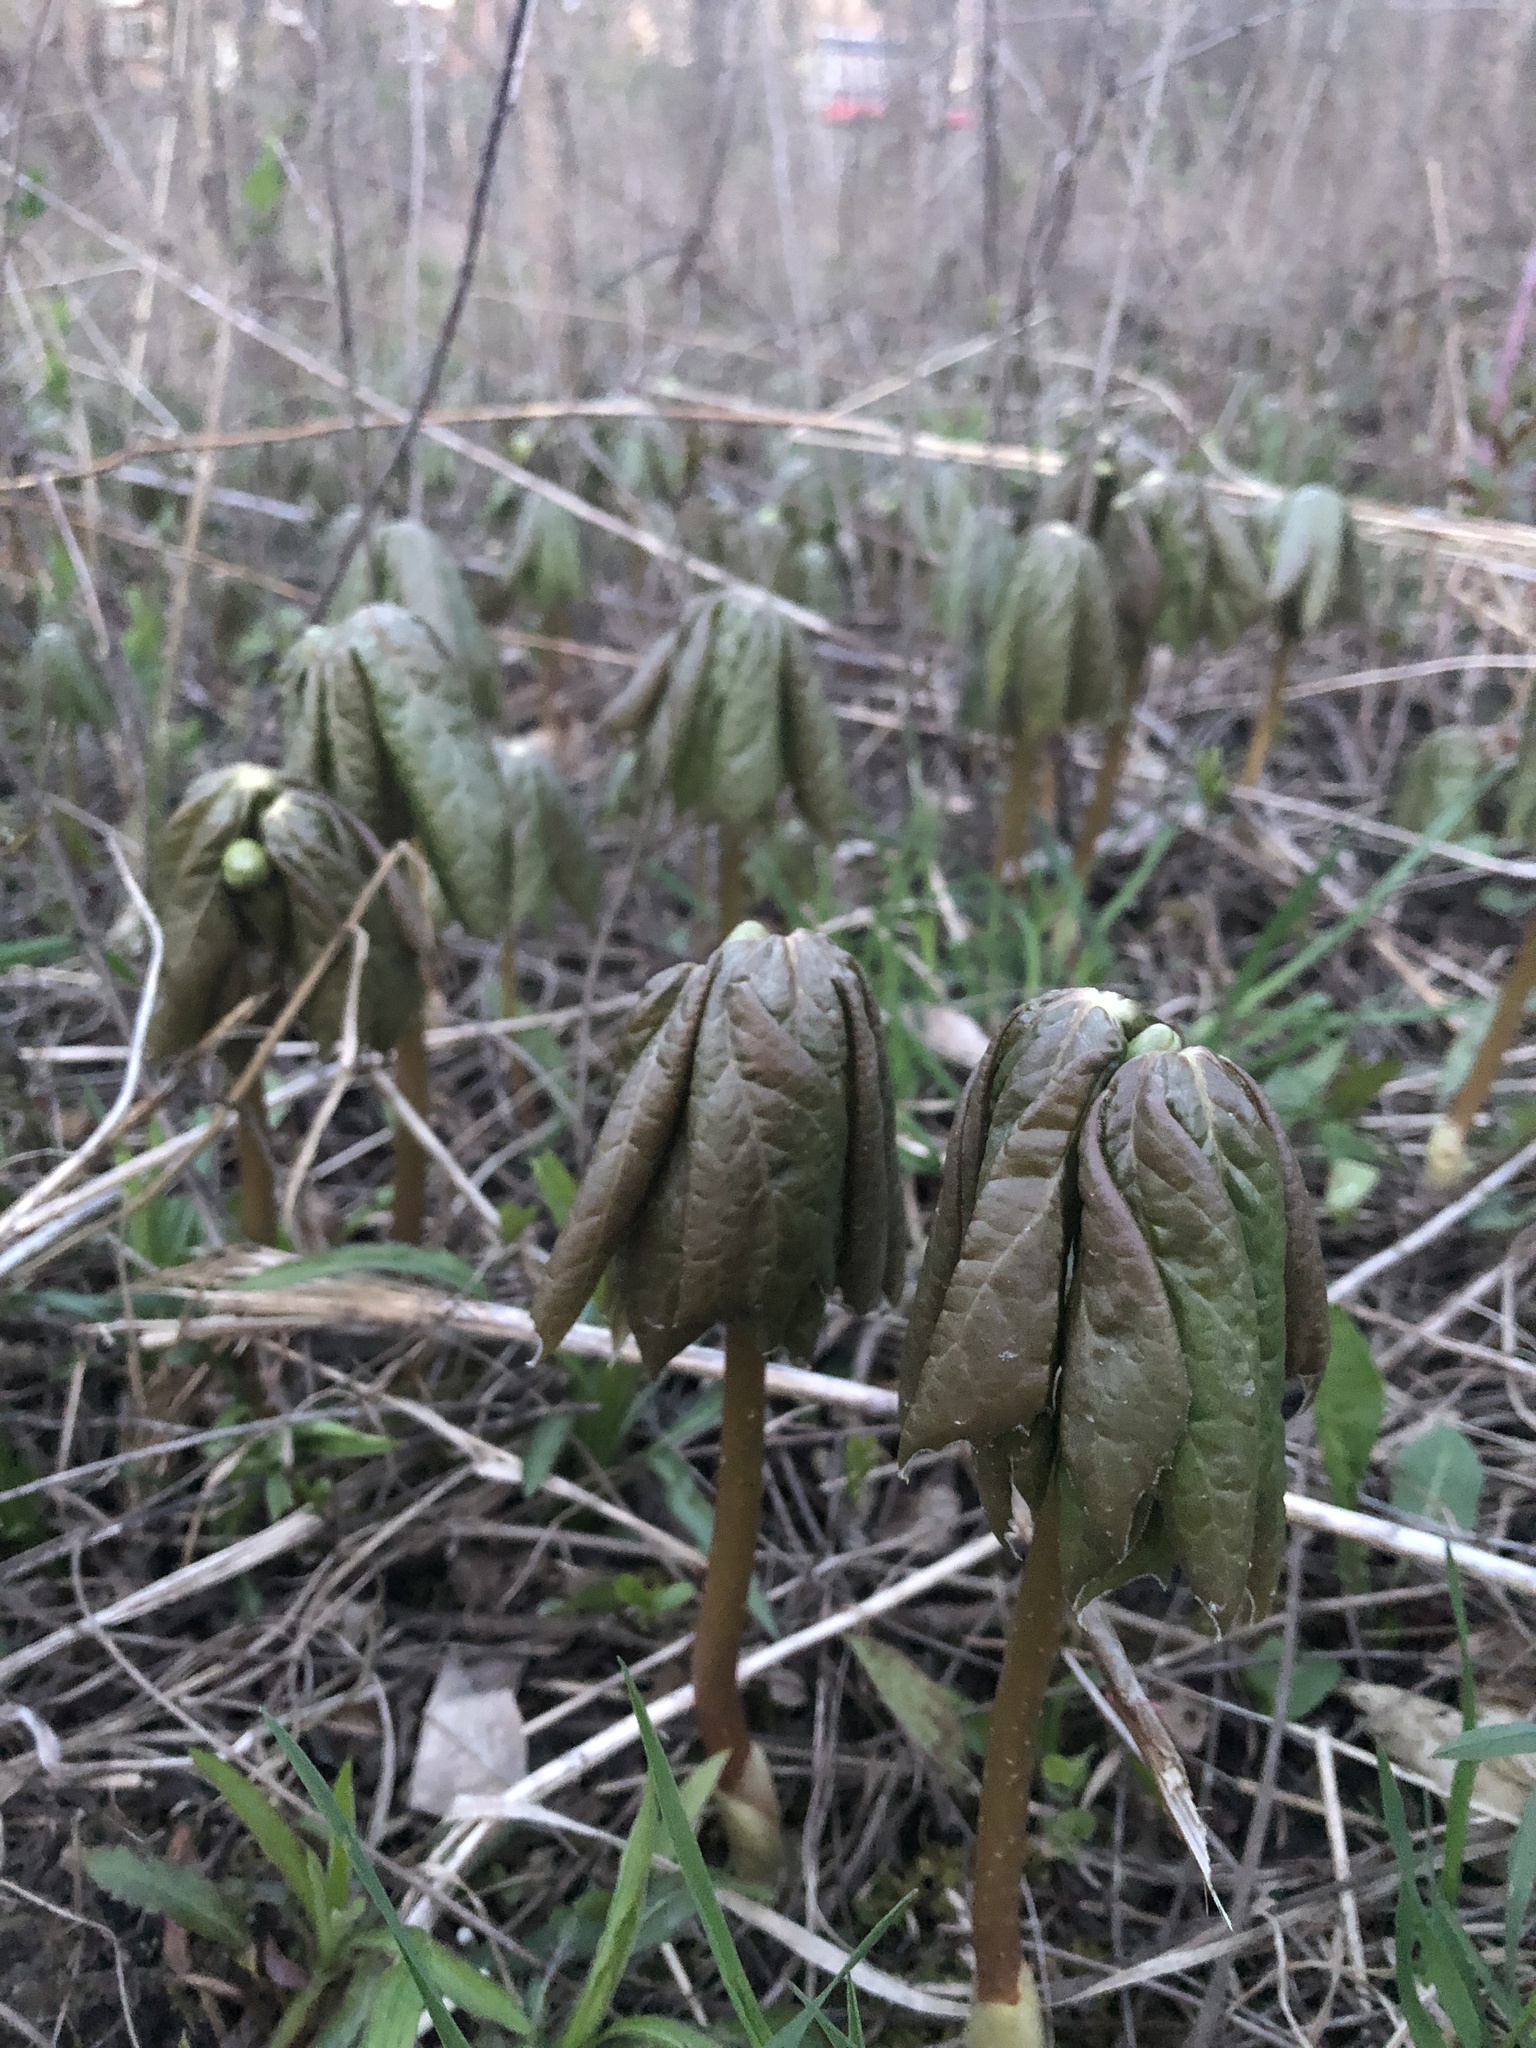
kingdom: Plantae
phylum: Tracheophyta
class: Magnoliopsida
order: Ranunculales
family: Berberidaceae
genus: Podophyllum
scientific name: Podophyllum peltatum
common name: Wild mandrake
